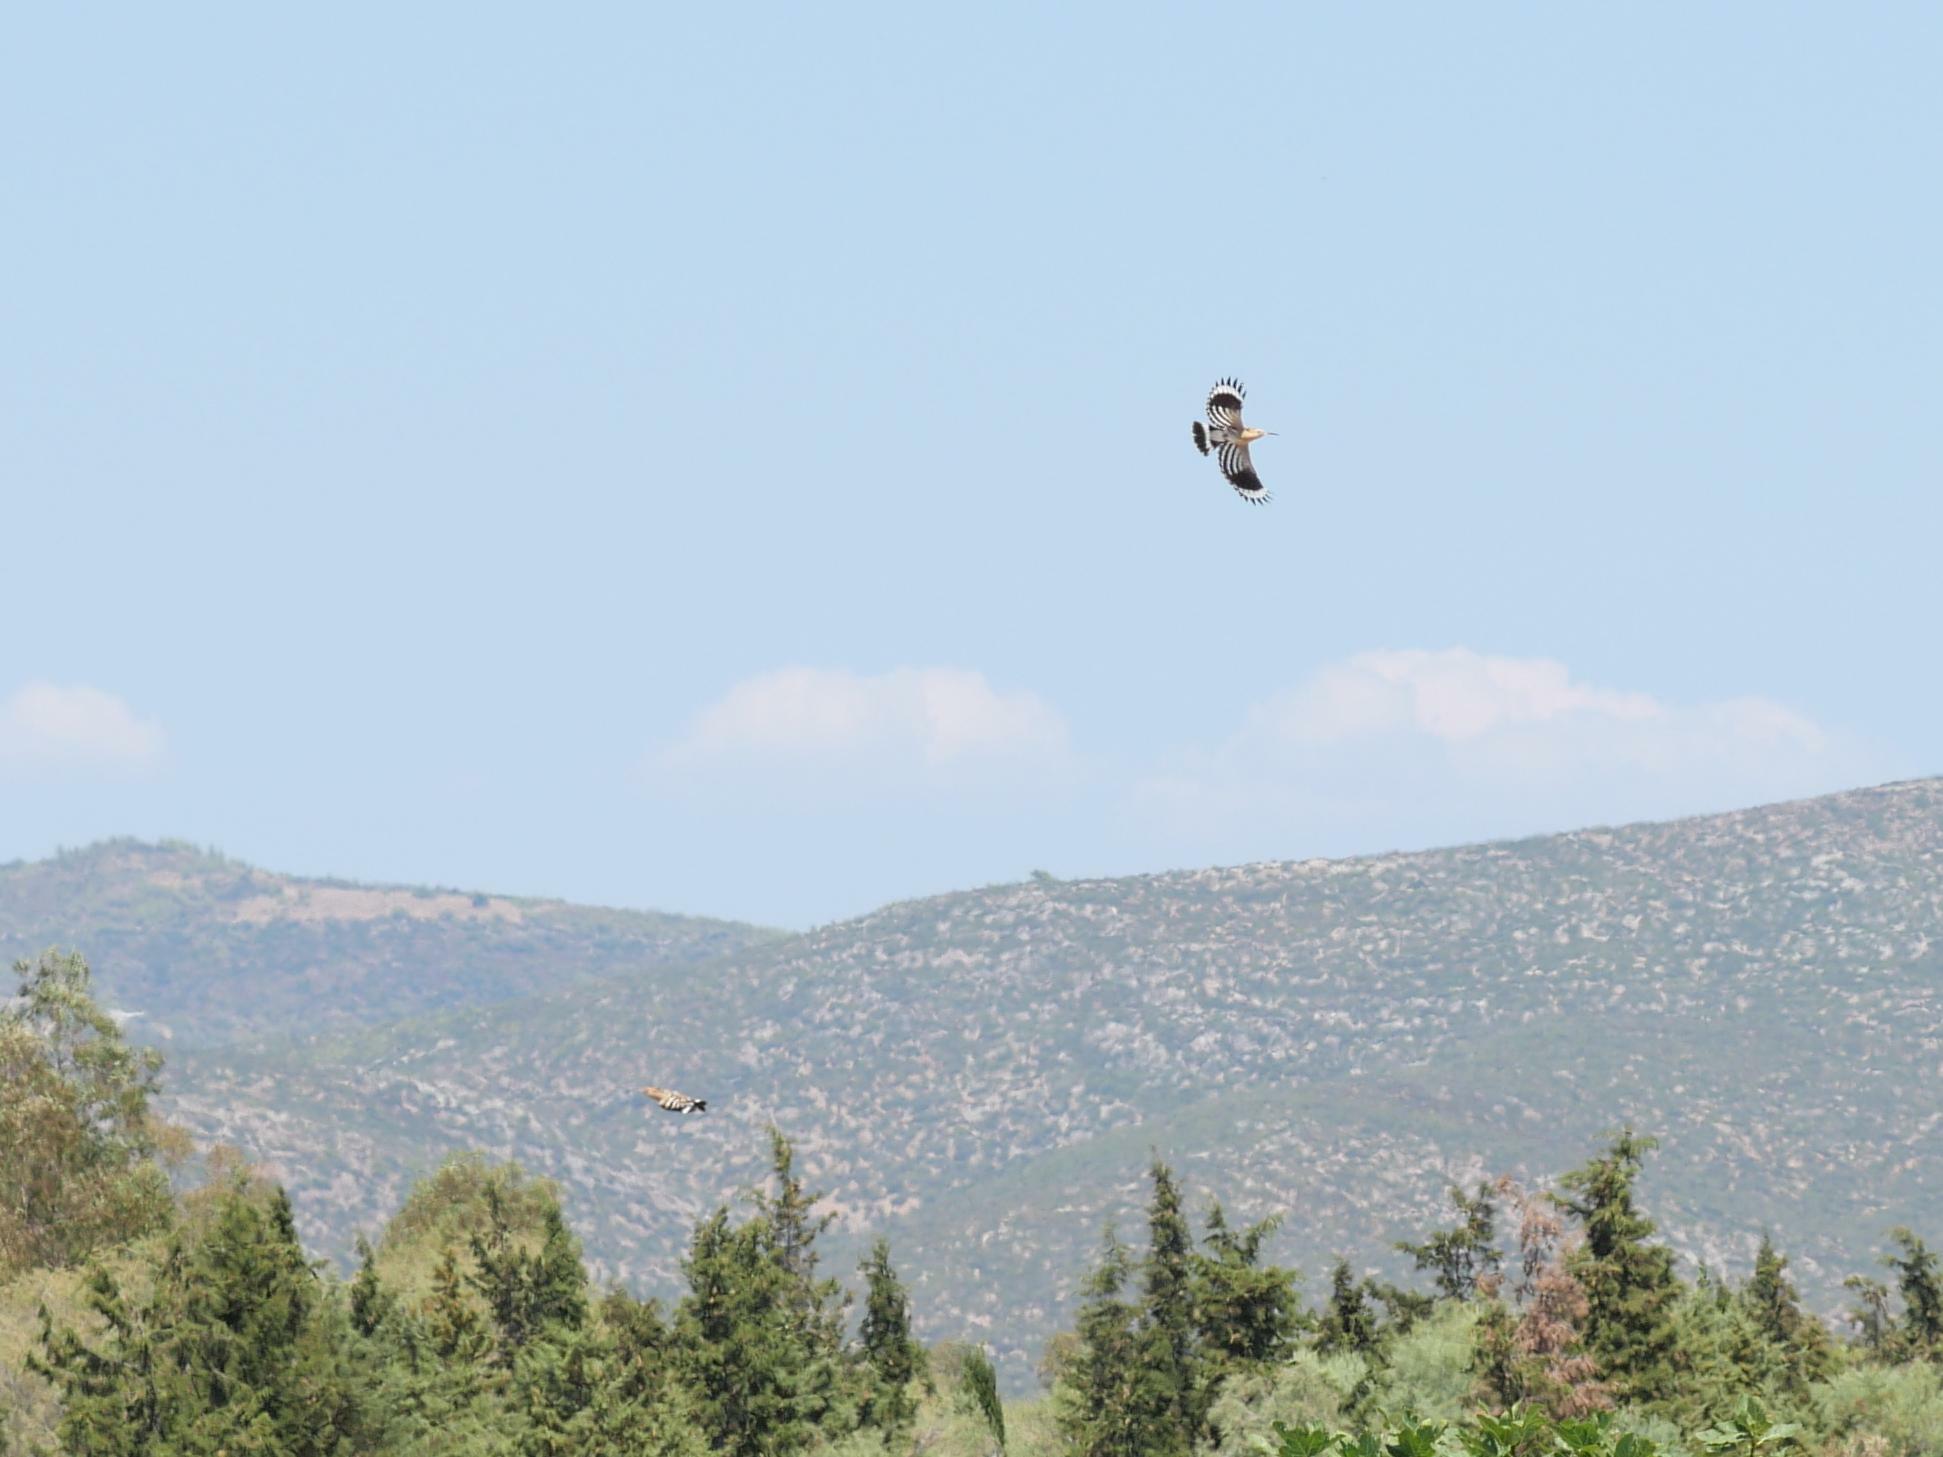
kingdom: Animalia
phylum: Chordata
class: Aves
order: Bucerotiformes
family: Upupidae
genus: Upupa
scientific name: Upupa epops
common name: Eurasian hoopoe
